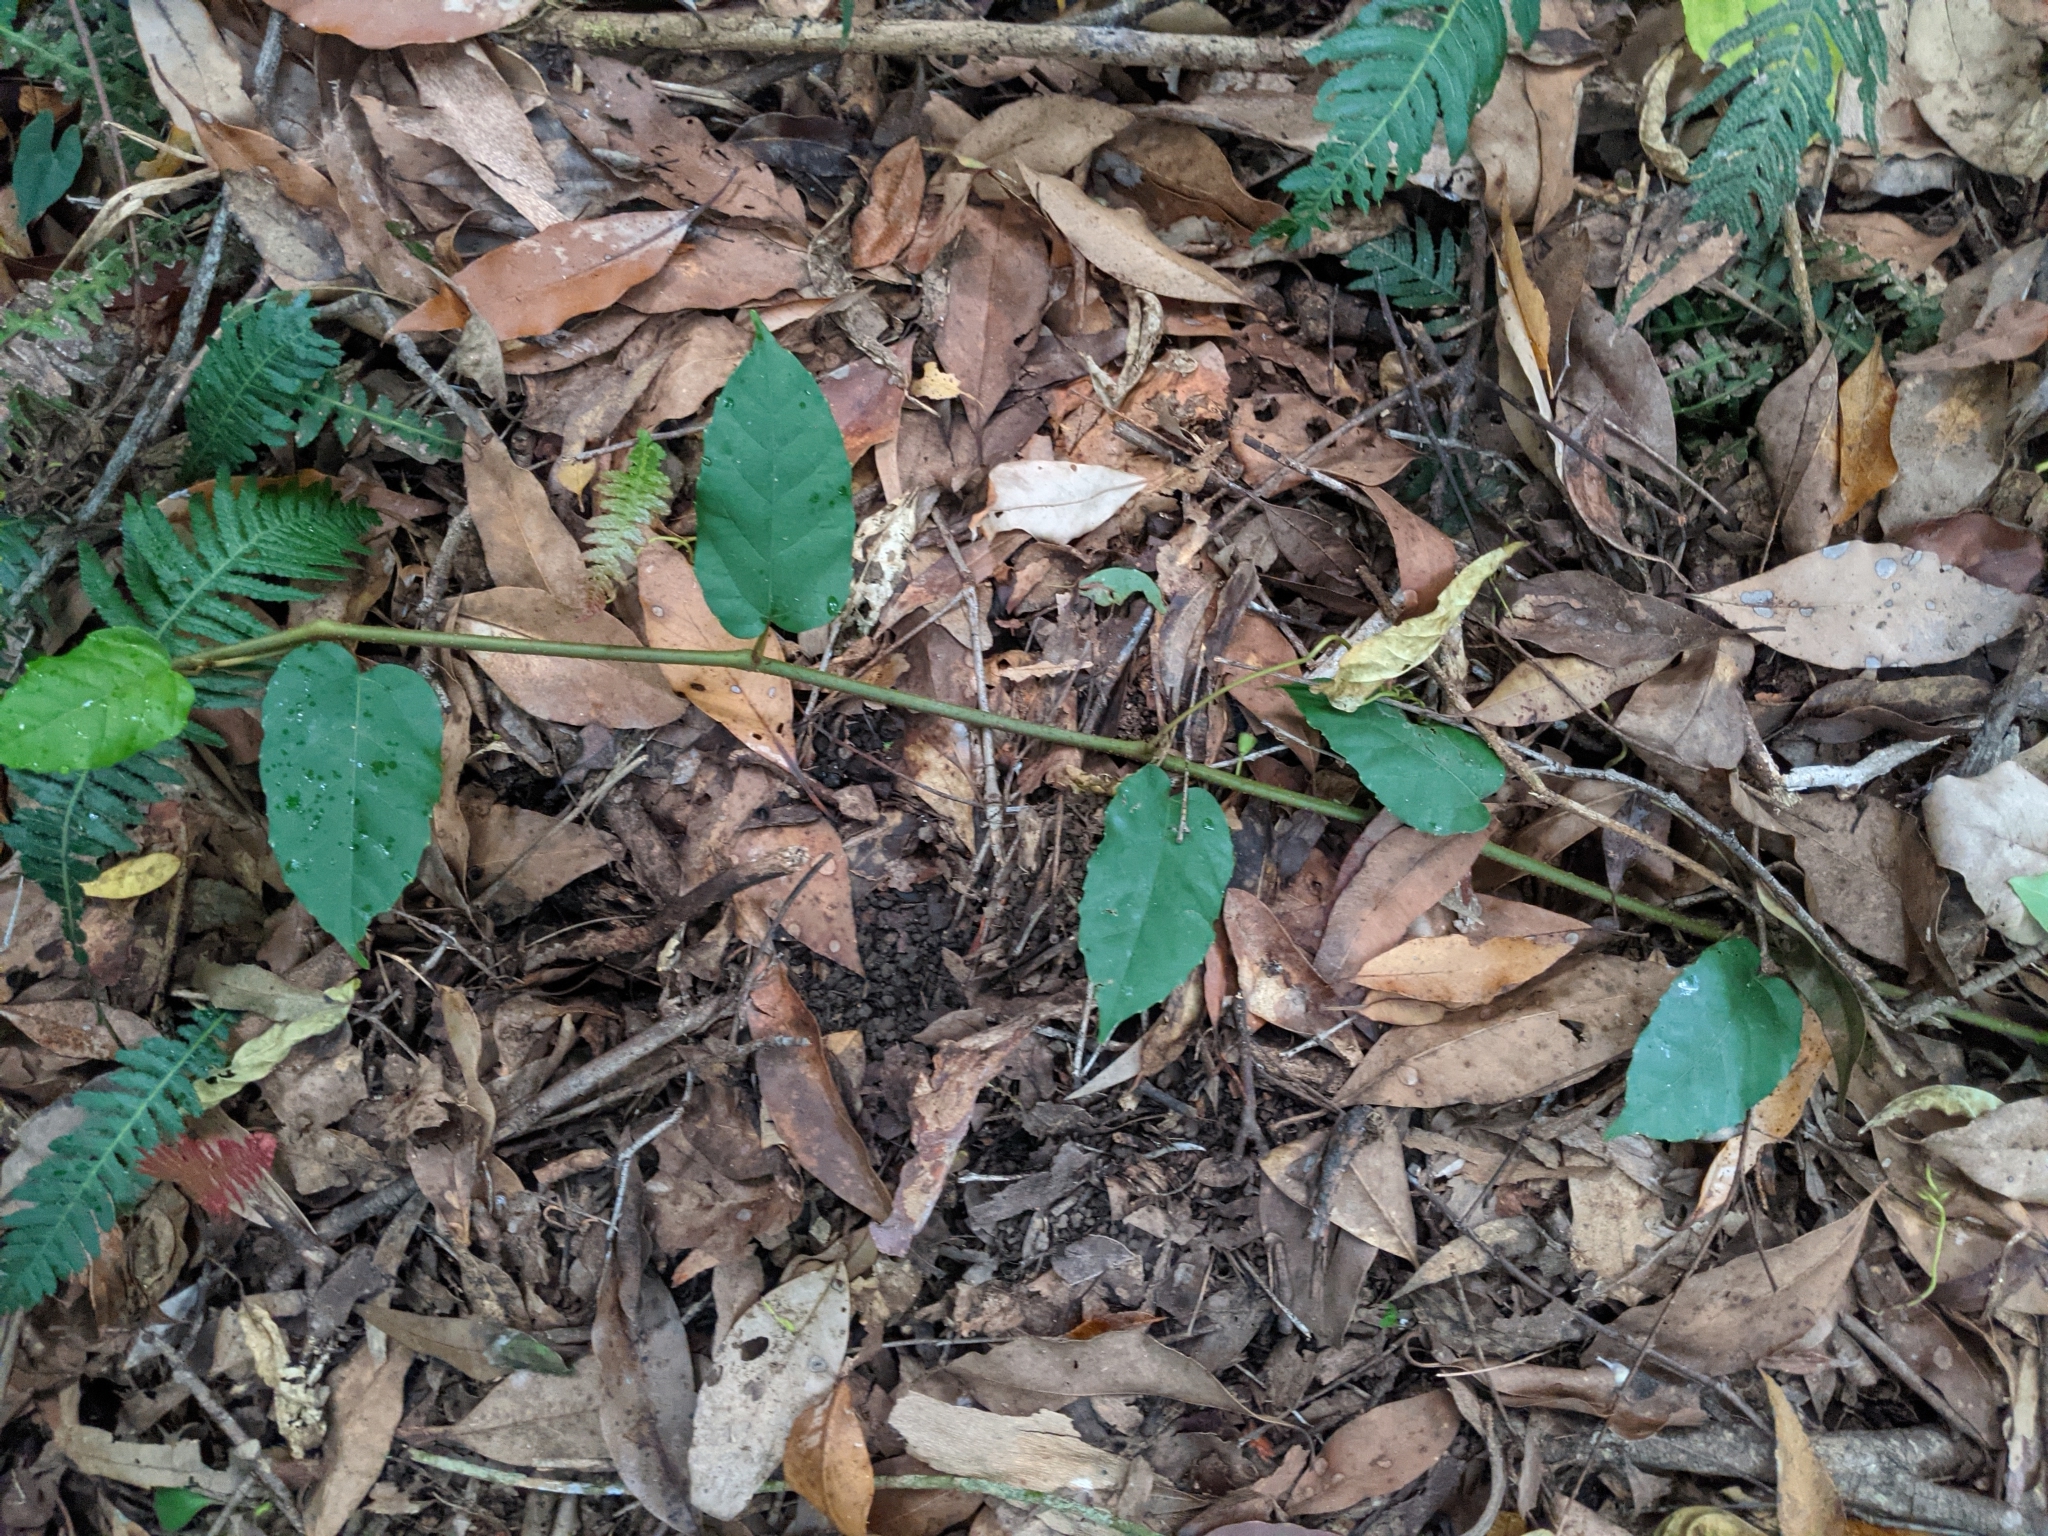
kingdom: Plantae
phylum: Tracheophyta
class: Magnoliopsida
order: Vitales
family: Vitaceae
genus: Cissus
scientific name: Cissus antarctica
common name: Kangaroo vine
